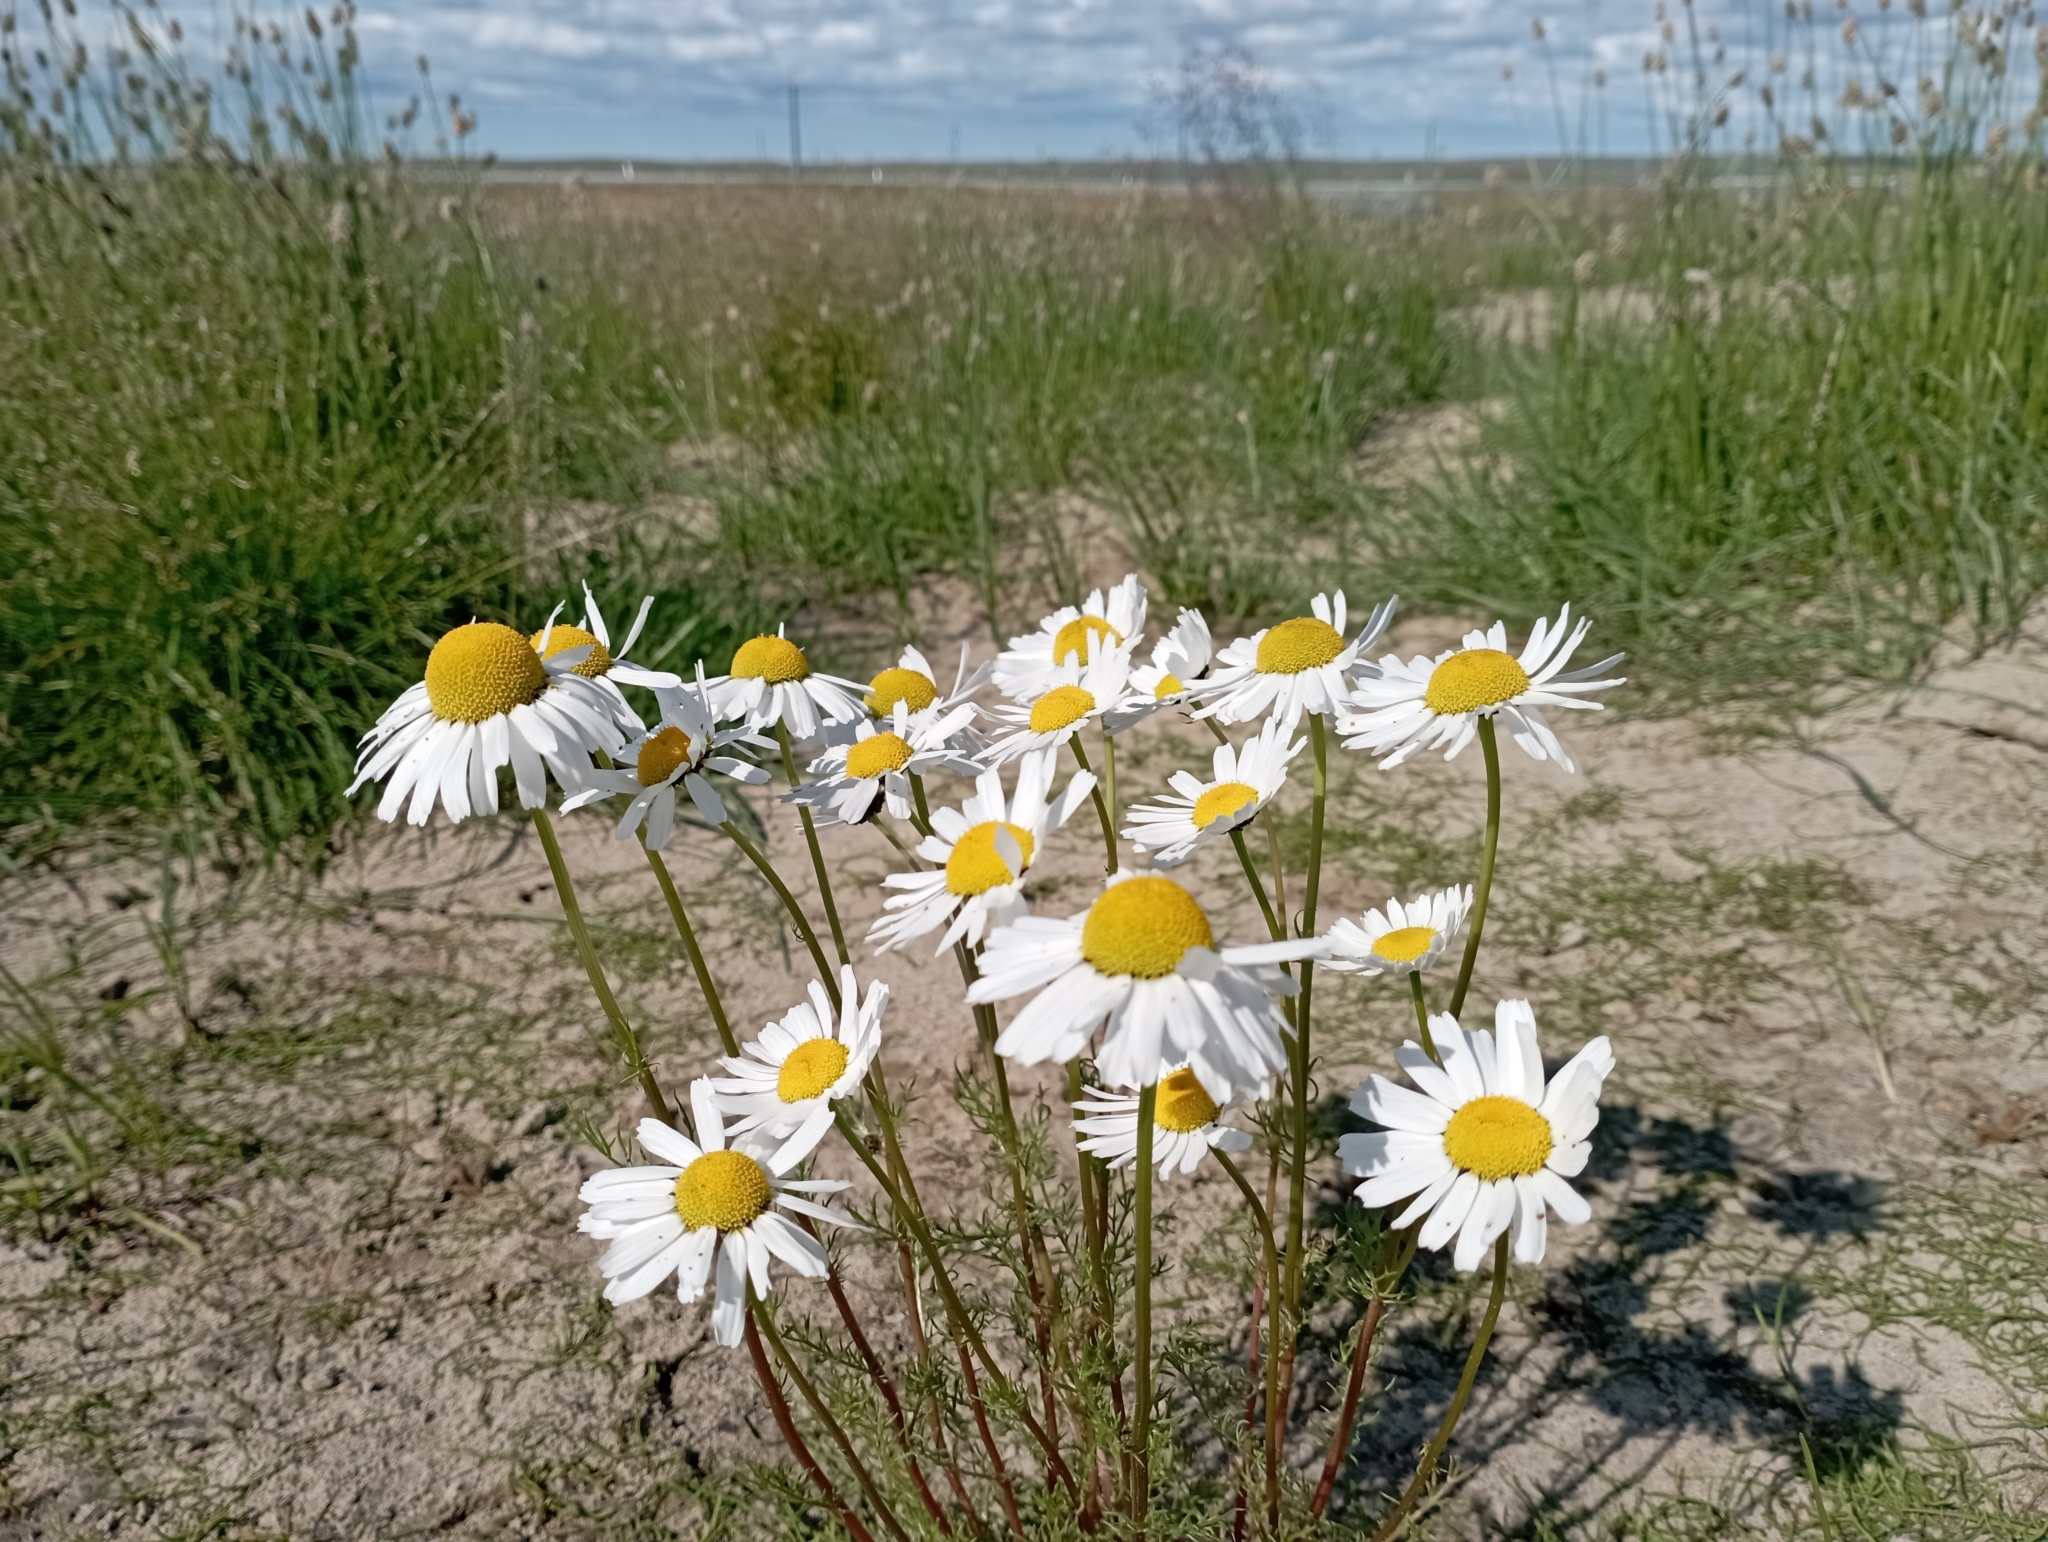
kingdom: Plantae
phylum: Tracheophyta
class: Magnoliopsida
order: Asterales
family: Asteraceae
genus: Tripleurospermum
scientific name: Tripleurospermum maritimum
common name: Sea mayweed
